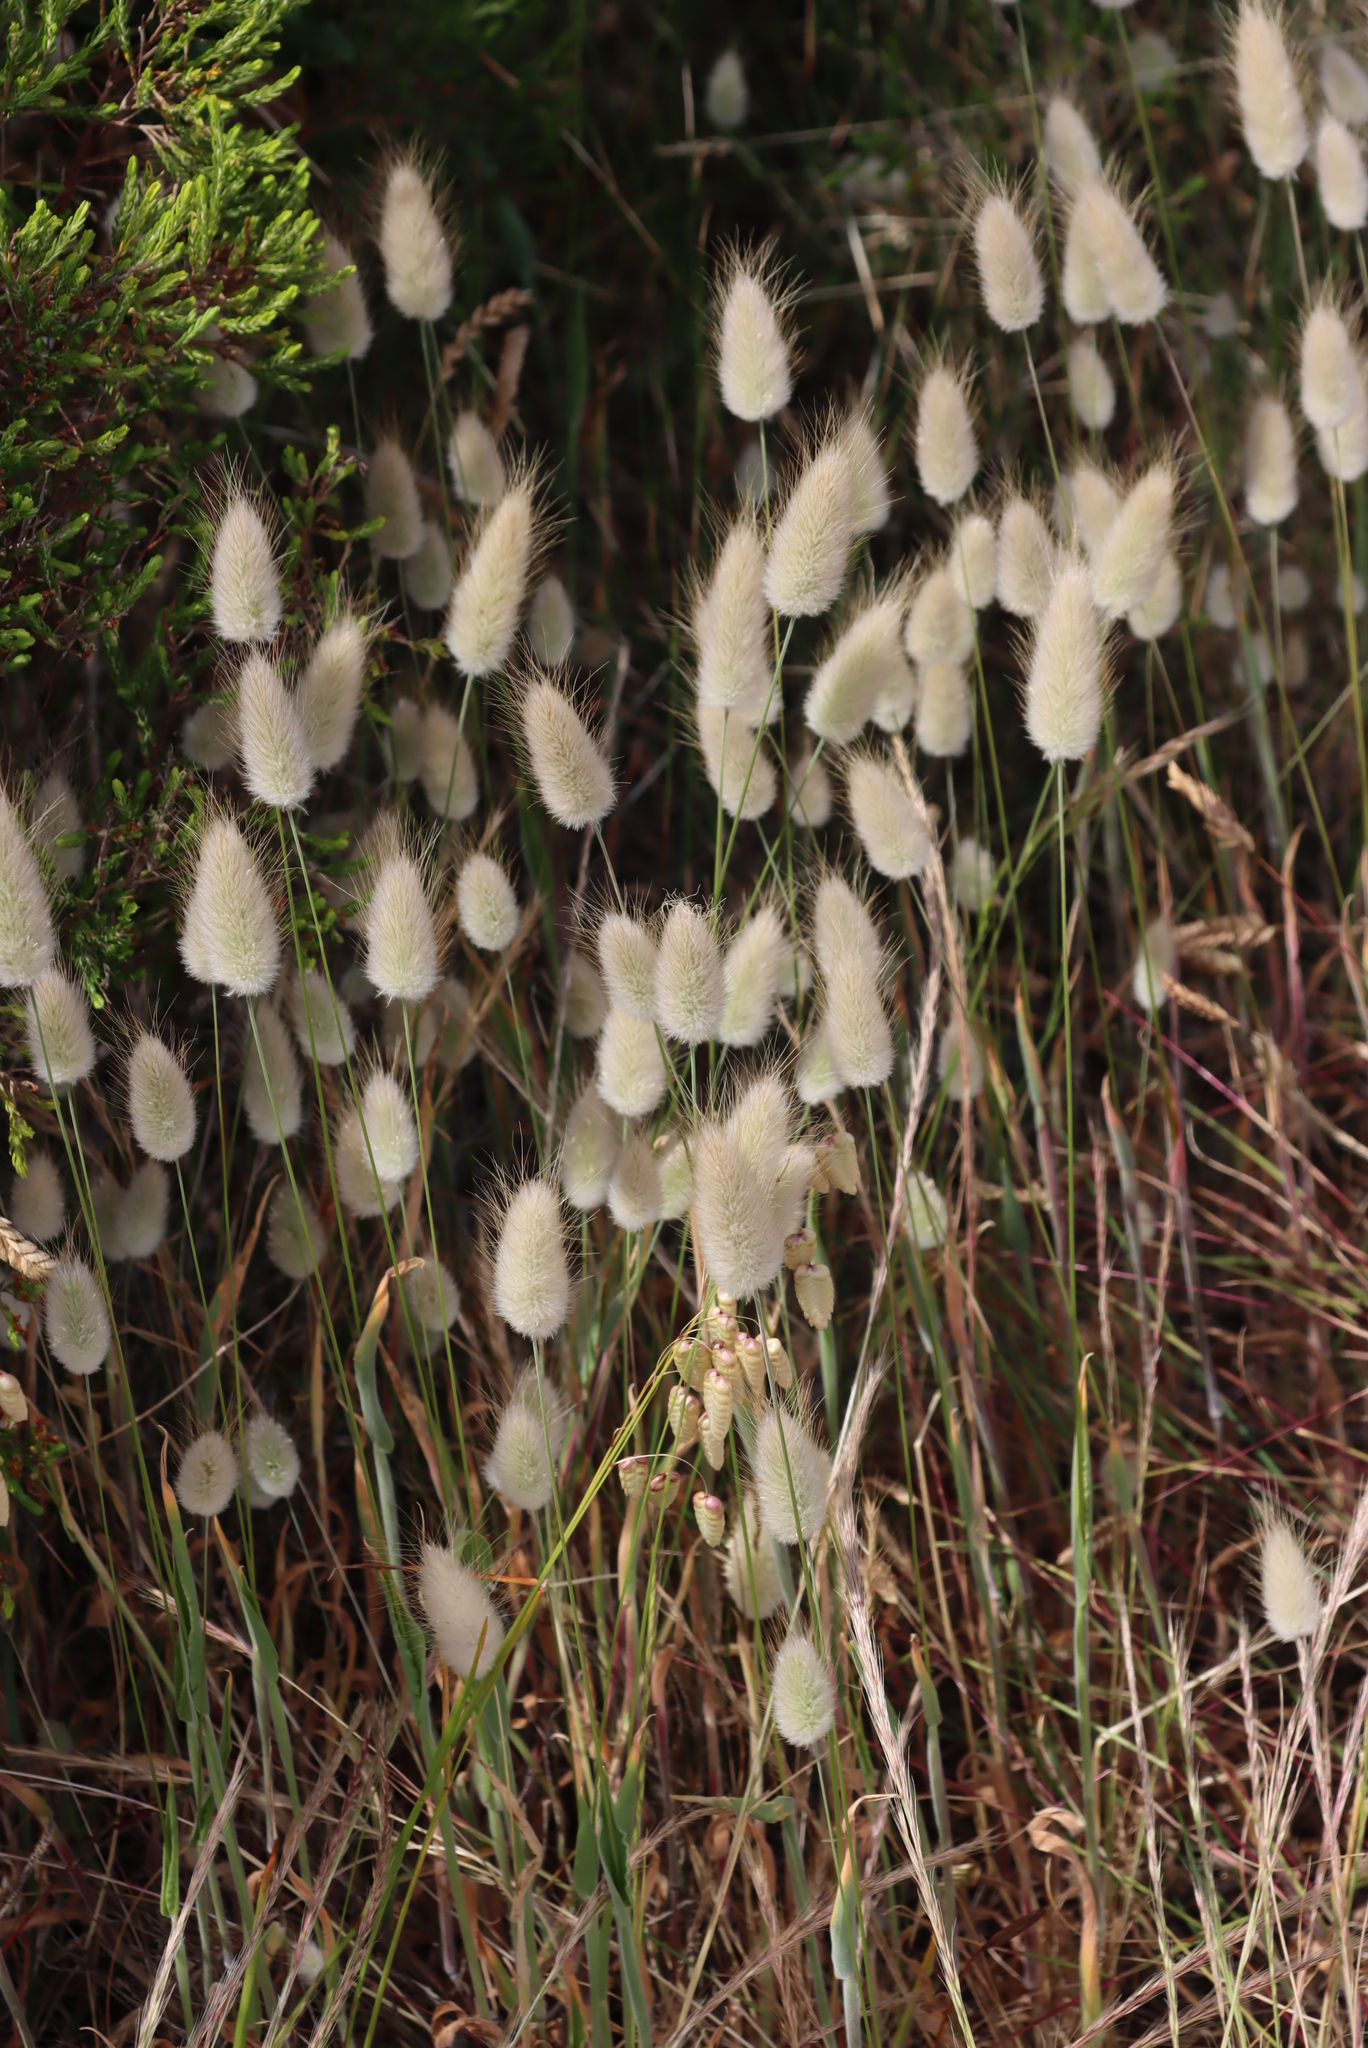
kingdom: Plantae
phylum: Tracheophyta
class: Liliopsida
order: Poales
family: Poaceae
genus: Lagurus
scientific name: Lagurus ovatus
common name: Hare's-tail
